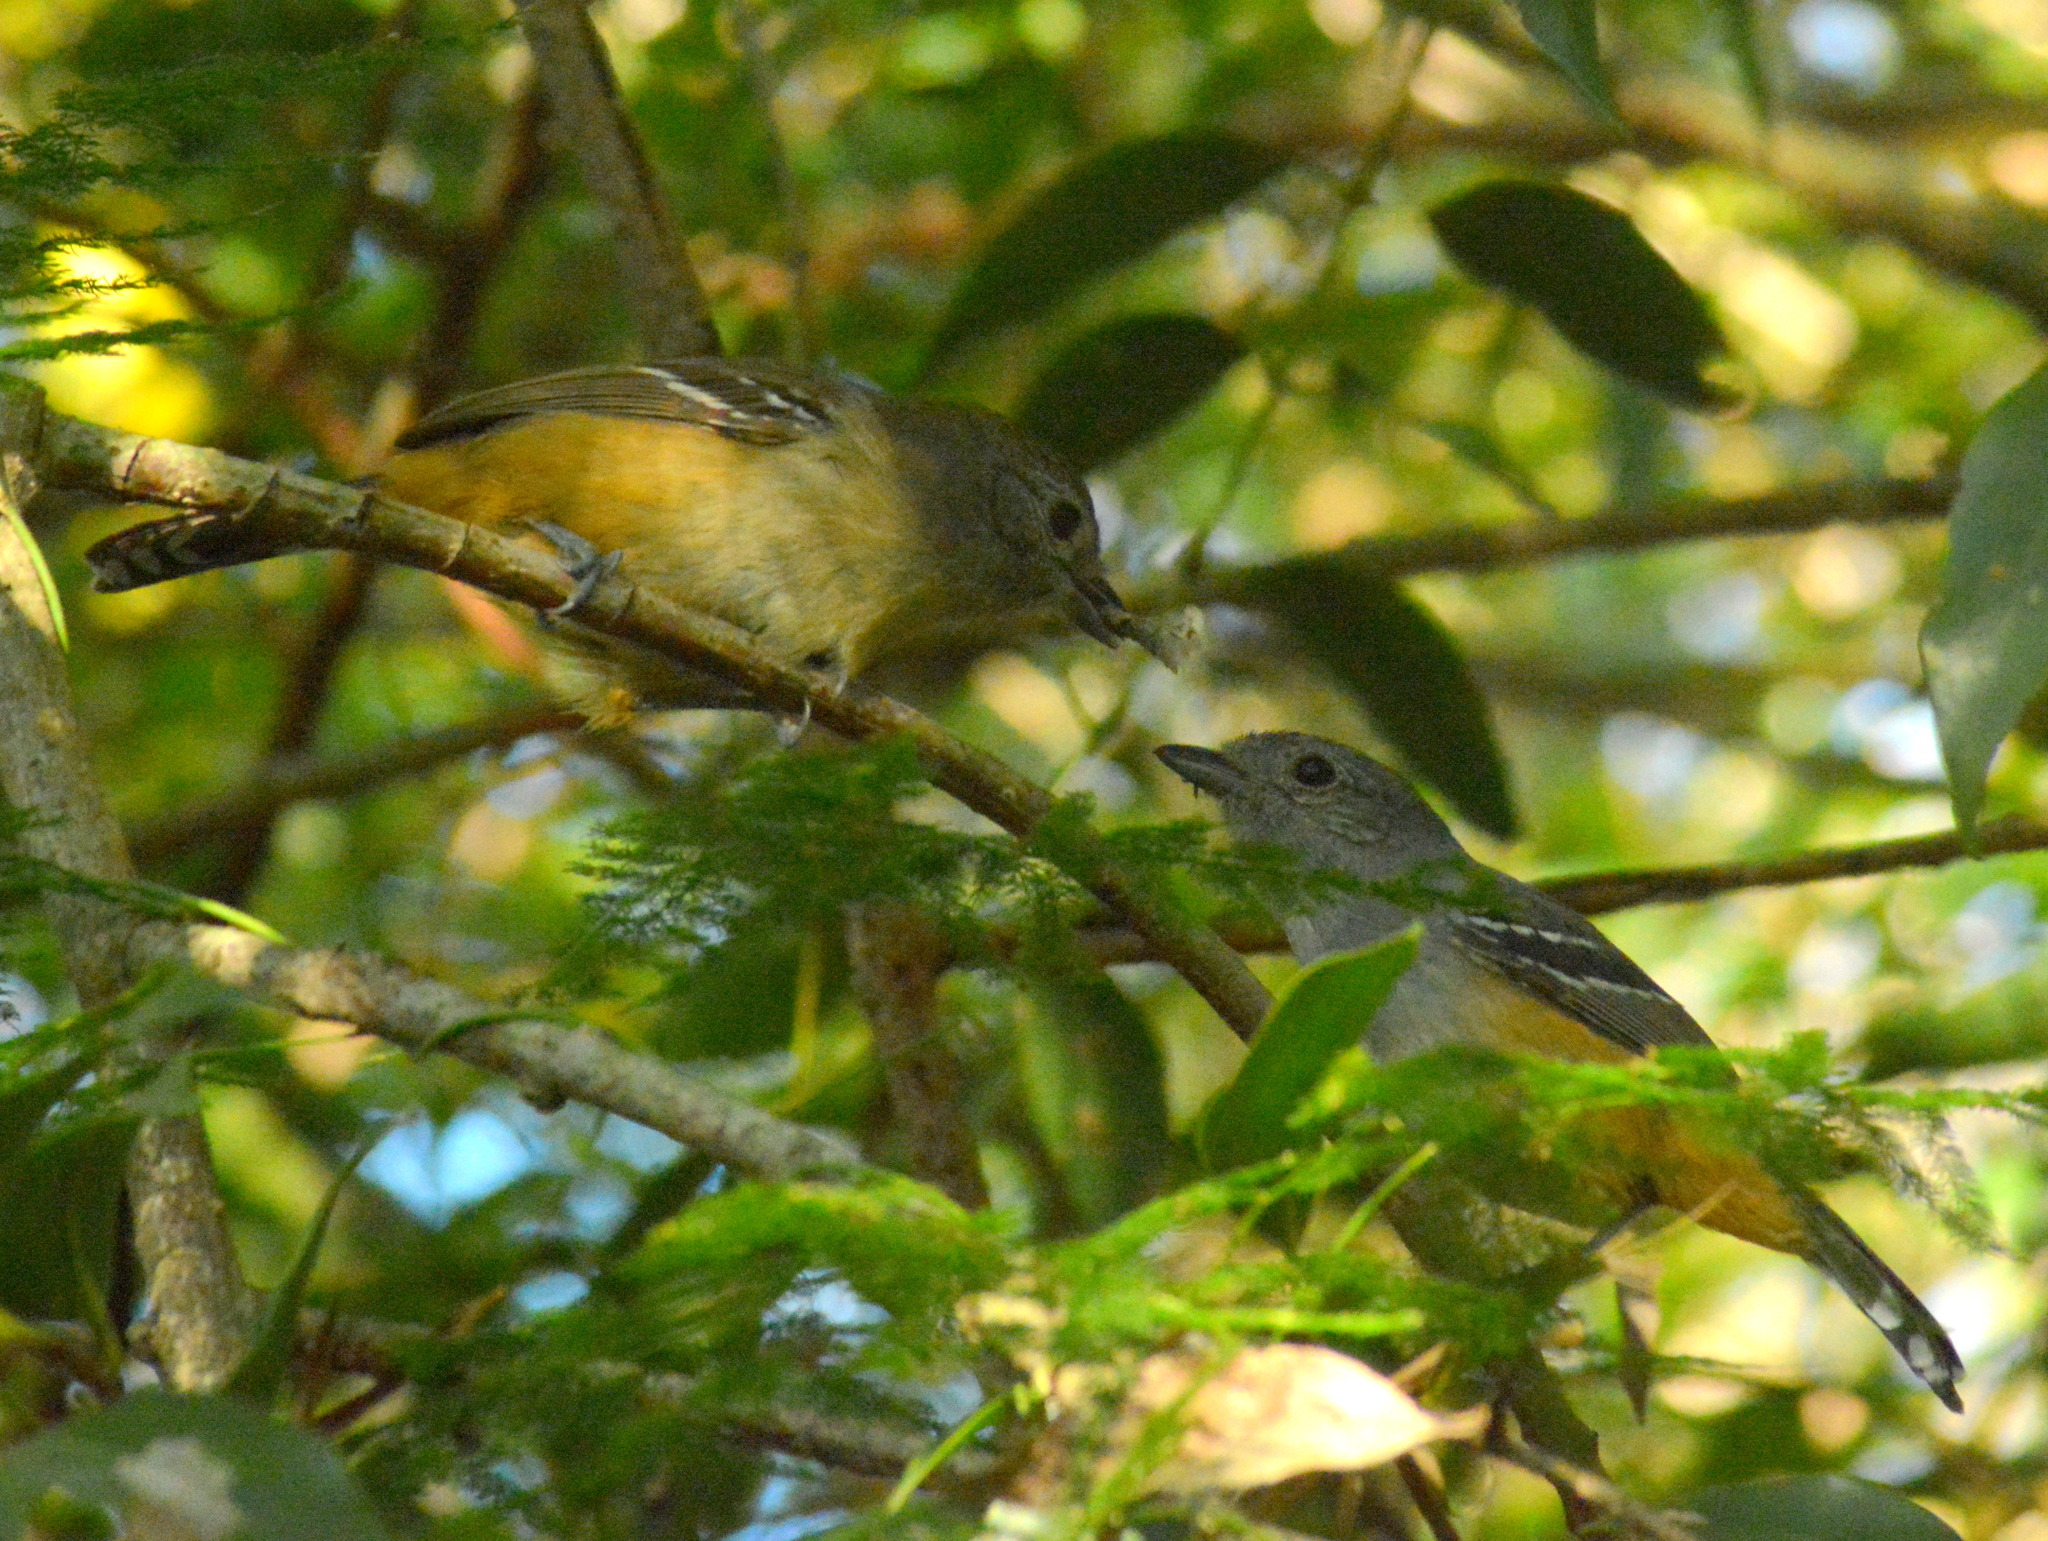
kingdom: Animalia
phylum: Chordata
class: Aves
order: Passeriformes
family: Thamnophilidae
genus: Thamnophilus
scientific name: Thamnophilus caerulescens
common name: Variable antshrike
